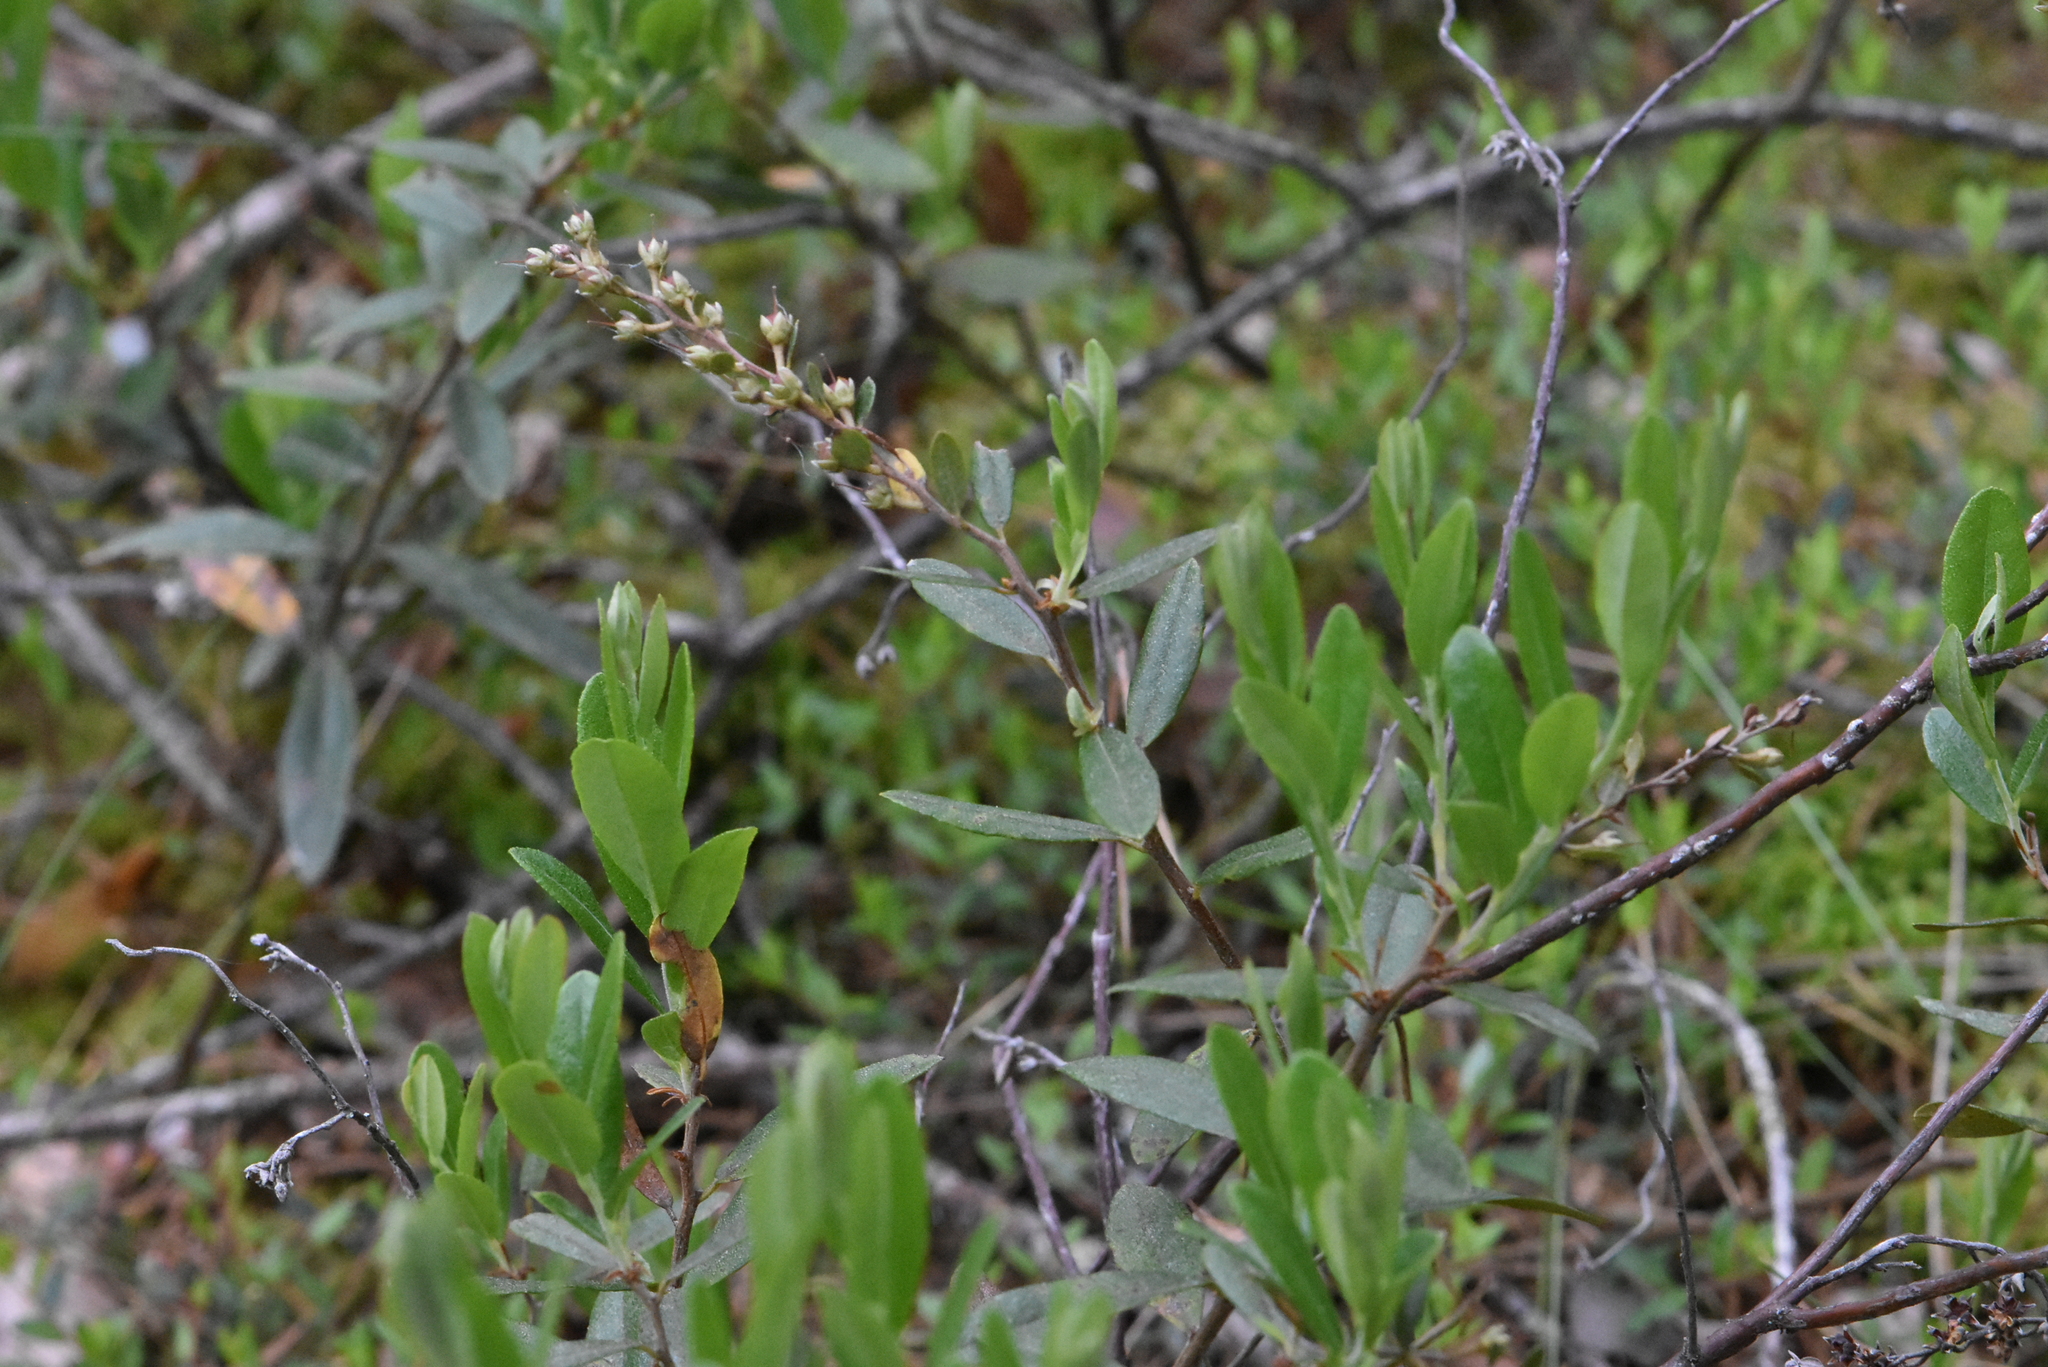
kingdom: Plantae
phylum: Tracheophyta
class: Magnoliopsida
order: Ericales
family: Ericaceae
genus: Chamaedaphne
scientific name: Chamaedaphne calyculata
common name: Leatherleaf
